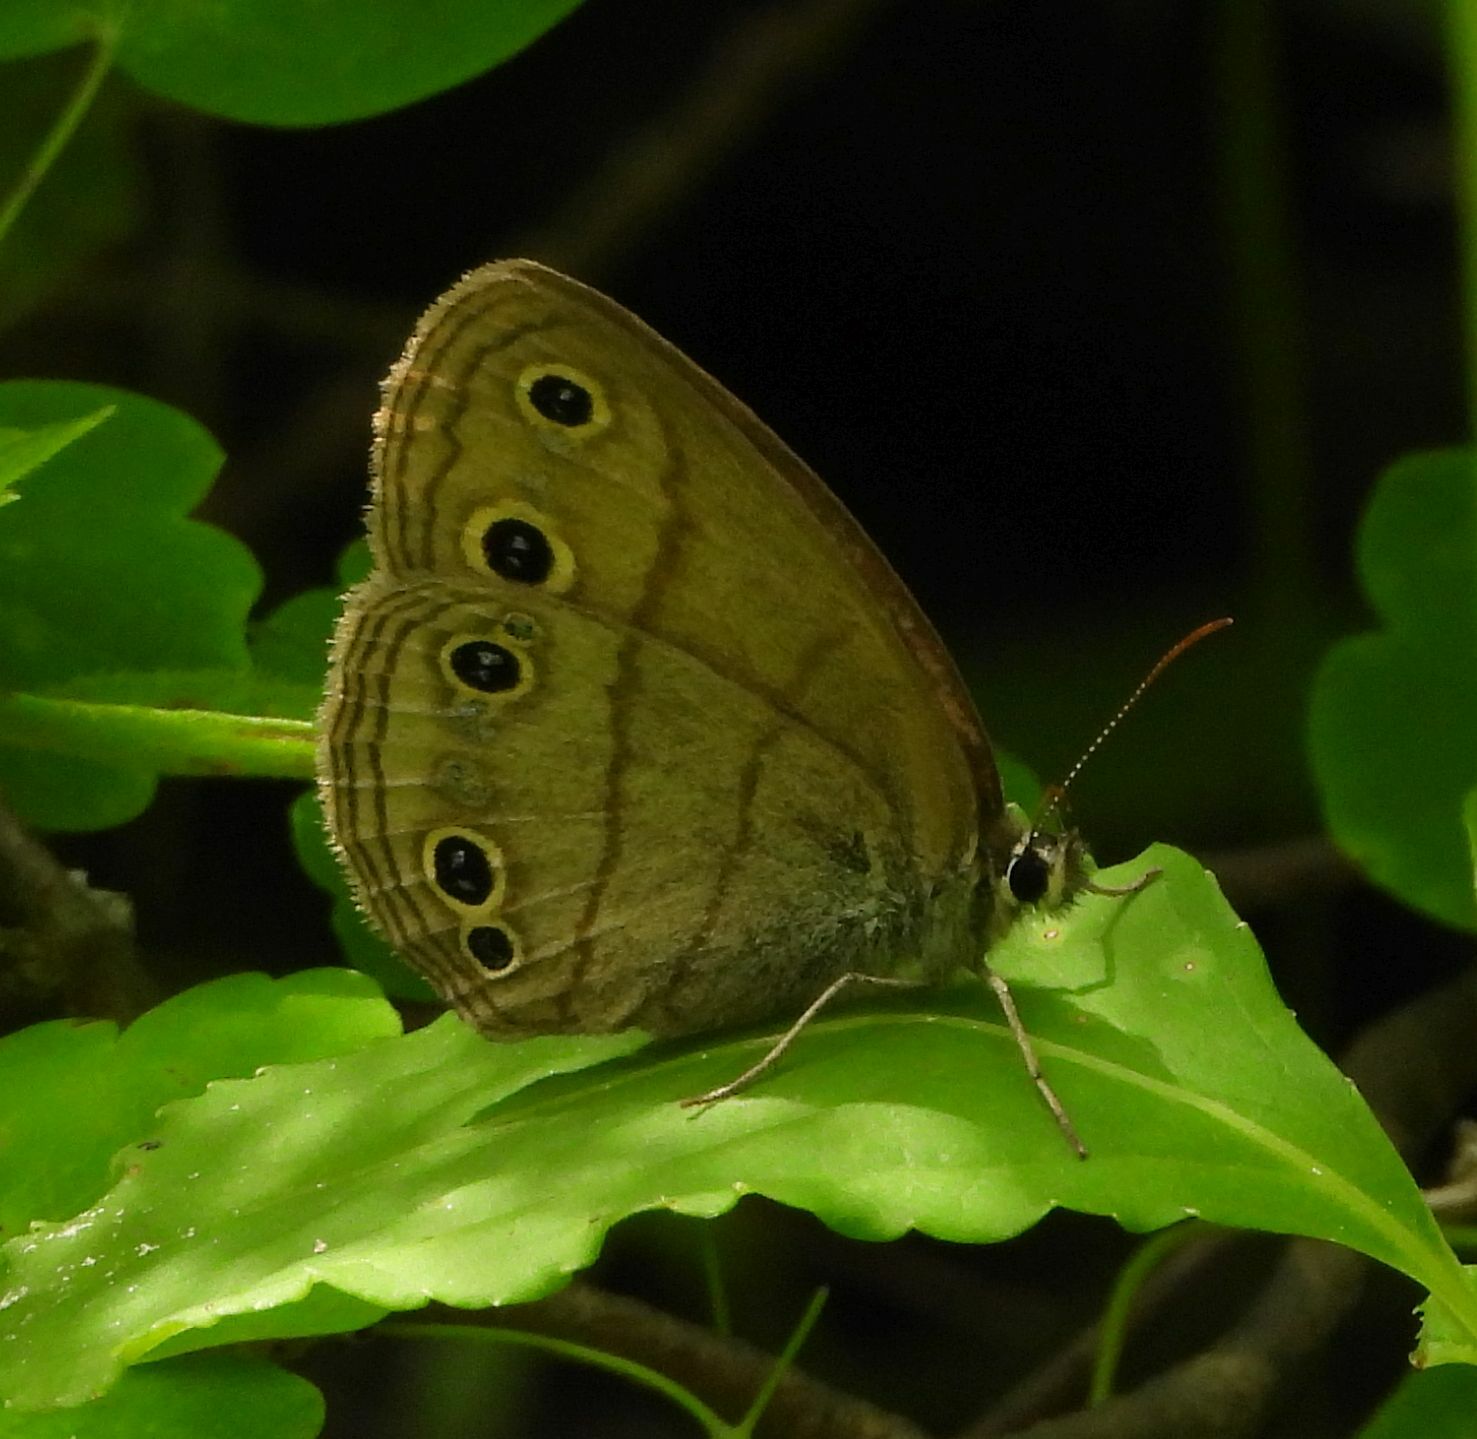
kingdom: Animalia
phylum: Arthropoda
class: Insecta
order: Lepidoptera
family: Nymphalidae
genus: Euptychia
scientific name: Euptychia cymela
